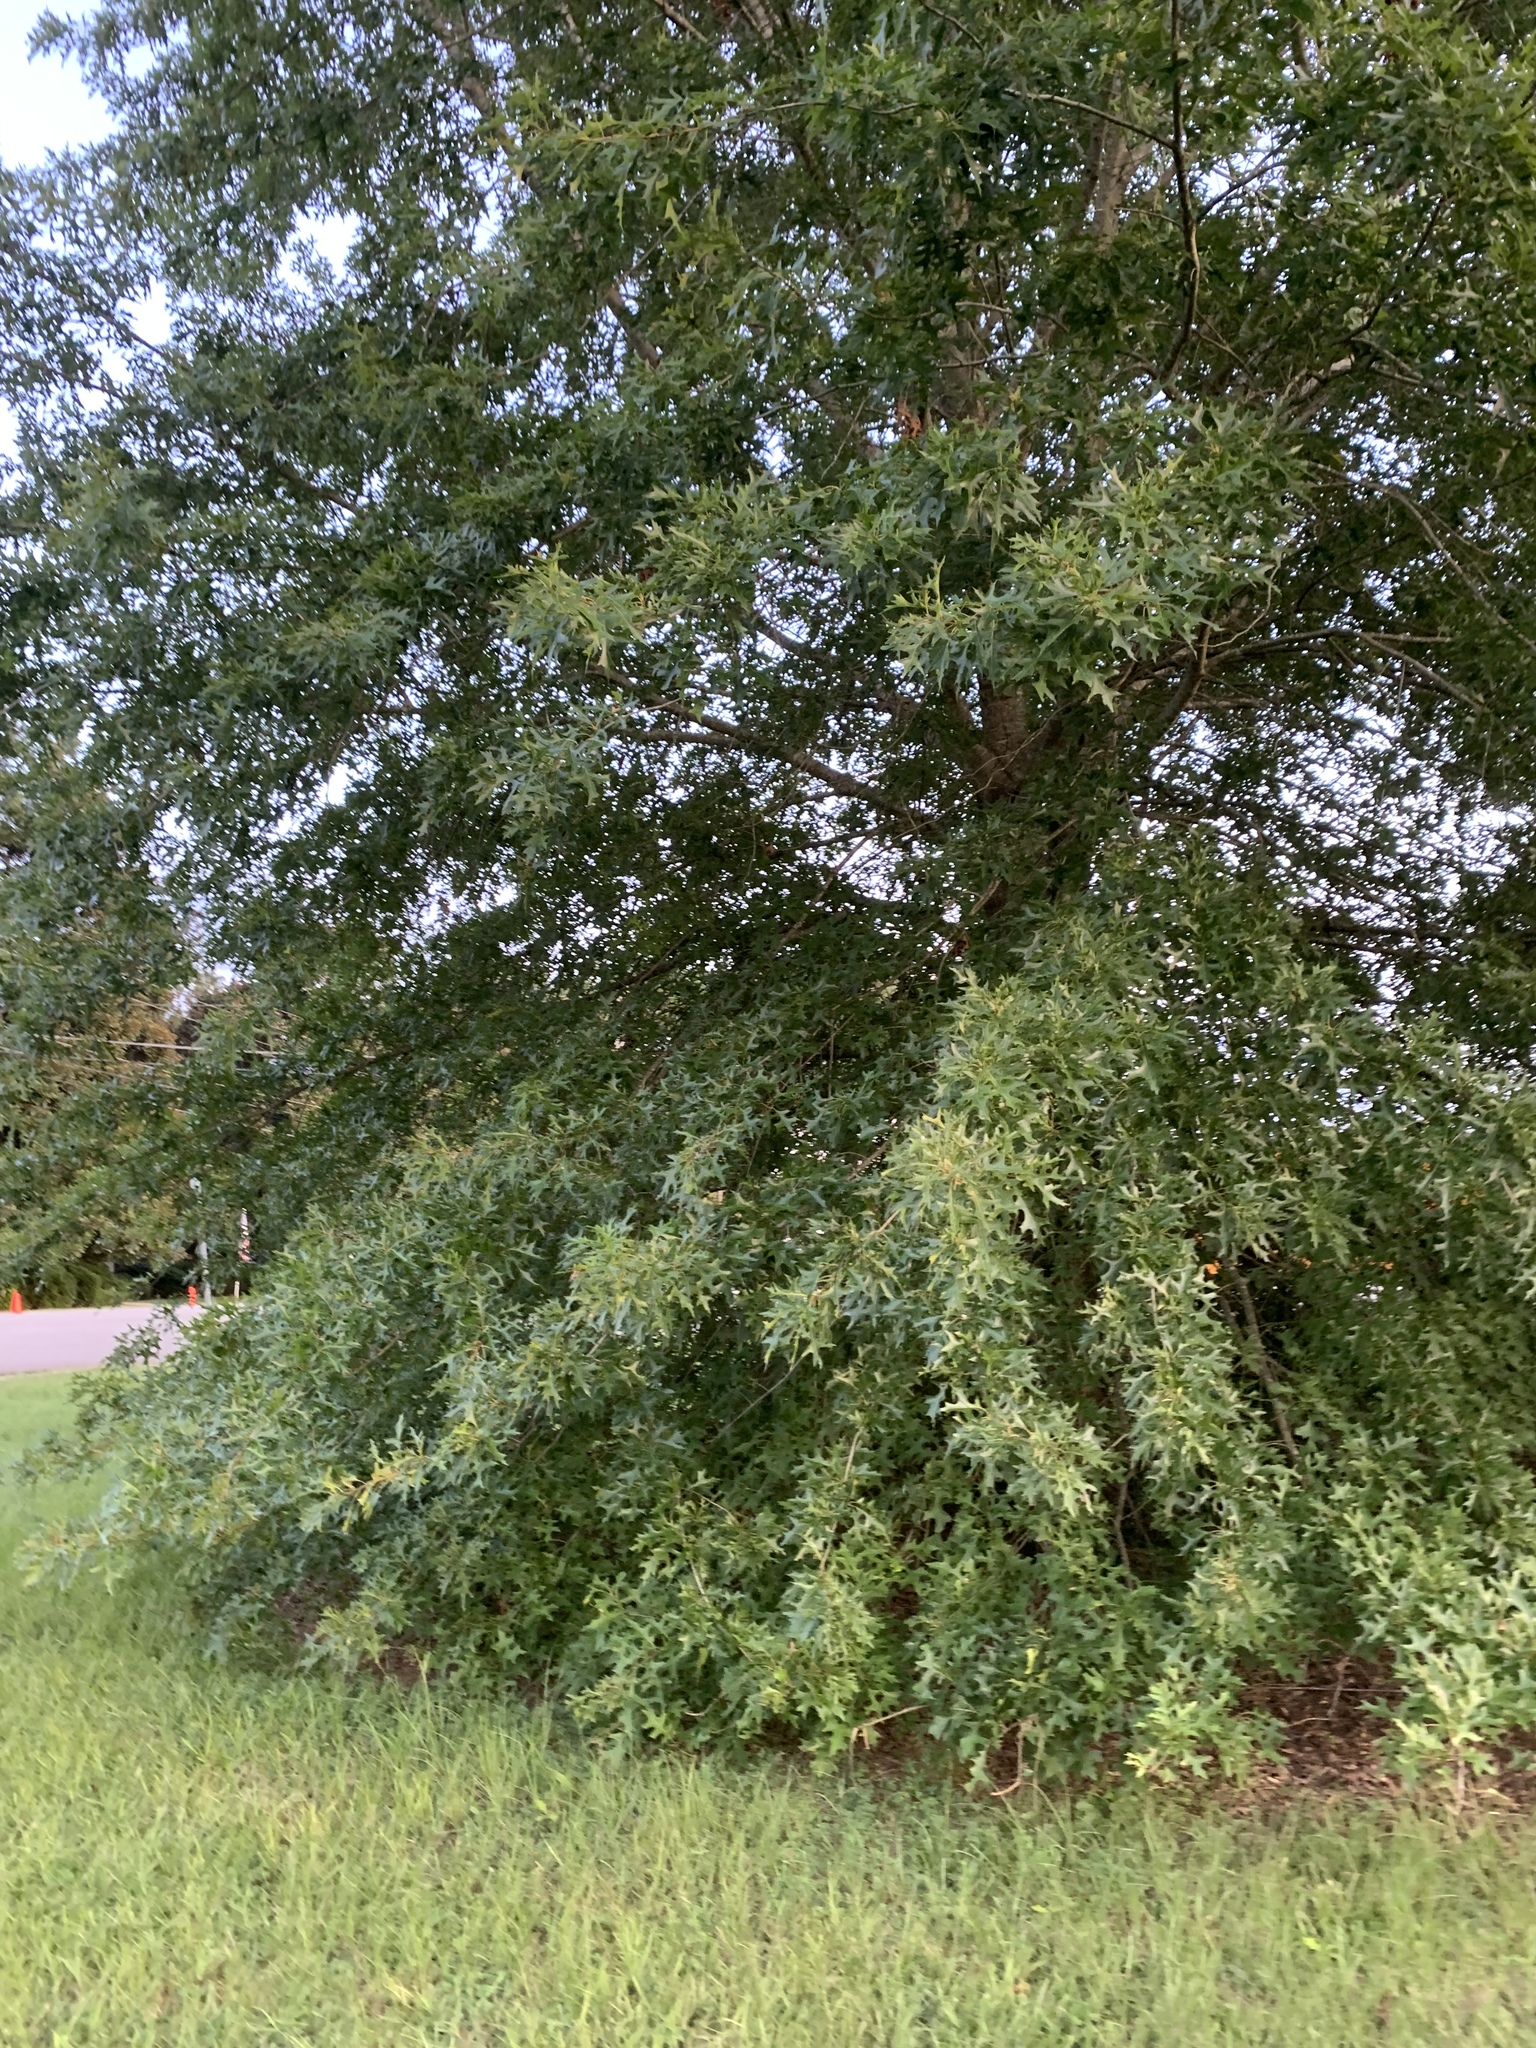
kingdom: Plantae
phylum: Tracheophyta
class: Magnoliopsida
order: Fagales
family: Fagaceae
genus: Quercus
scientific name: Quercus palustris
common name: Pin oak
